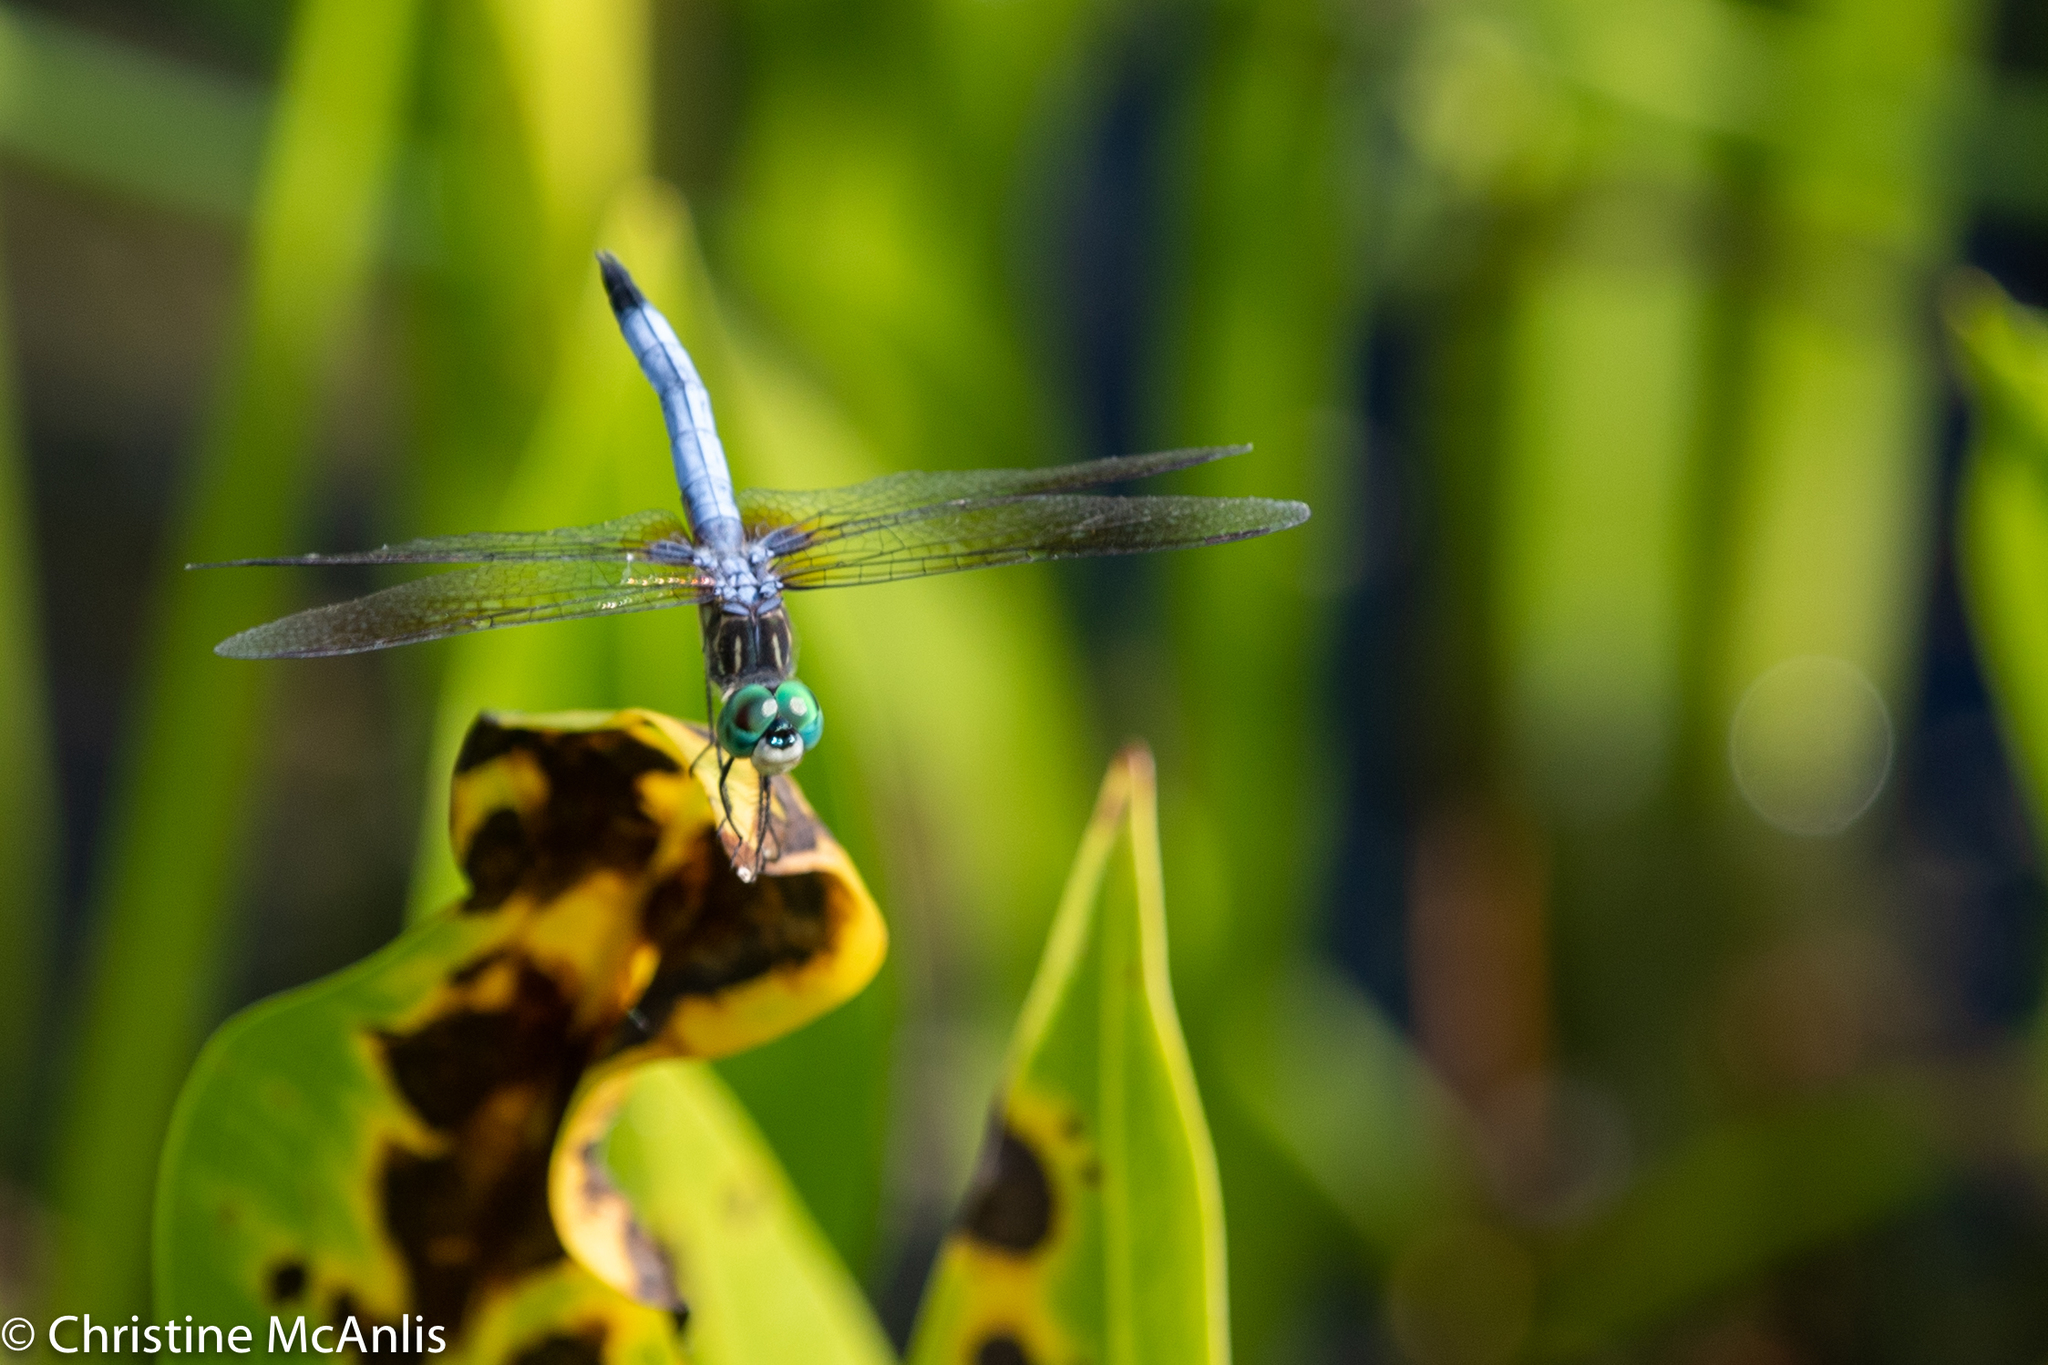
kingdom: Animalia
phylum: Arthropoda
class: Insecta
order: Odonata
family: Libellulidae
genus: Pachydiplax
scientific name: Pachydiplax longipennis
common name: Blue dasher
